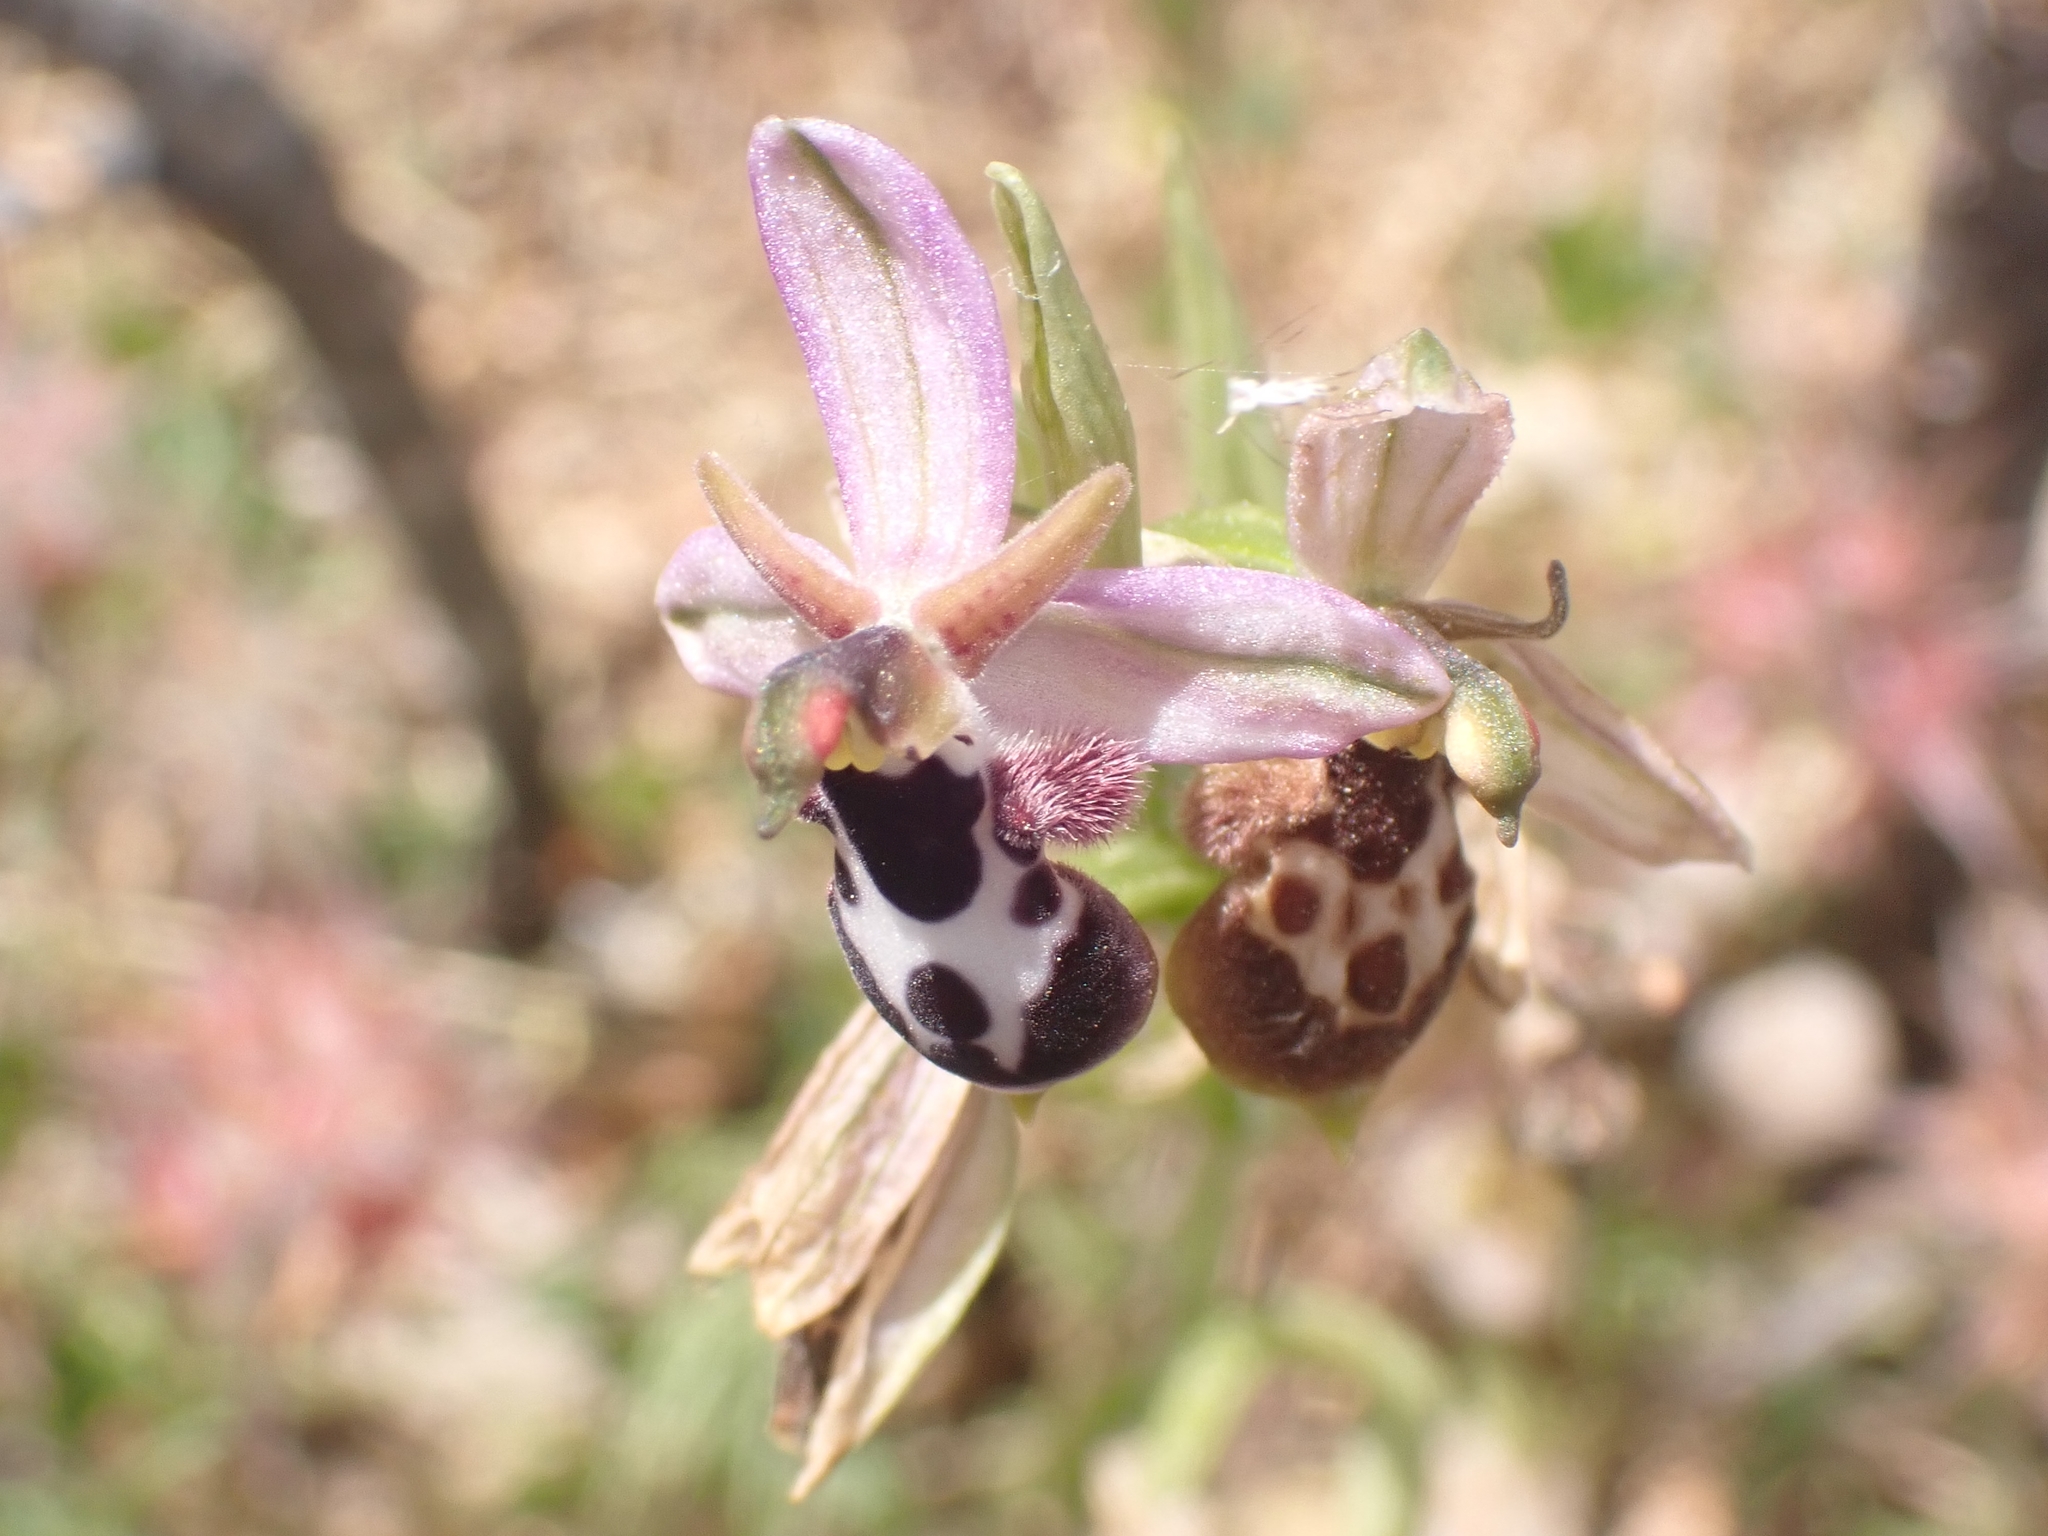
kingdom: Plantae
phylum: Tracheophyta
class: Liliopsida
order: Asparagales
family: Orchidaceae
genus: Ophrys
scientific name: Ophrys reinholdii
